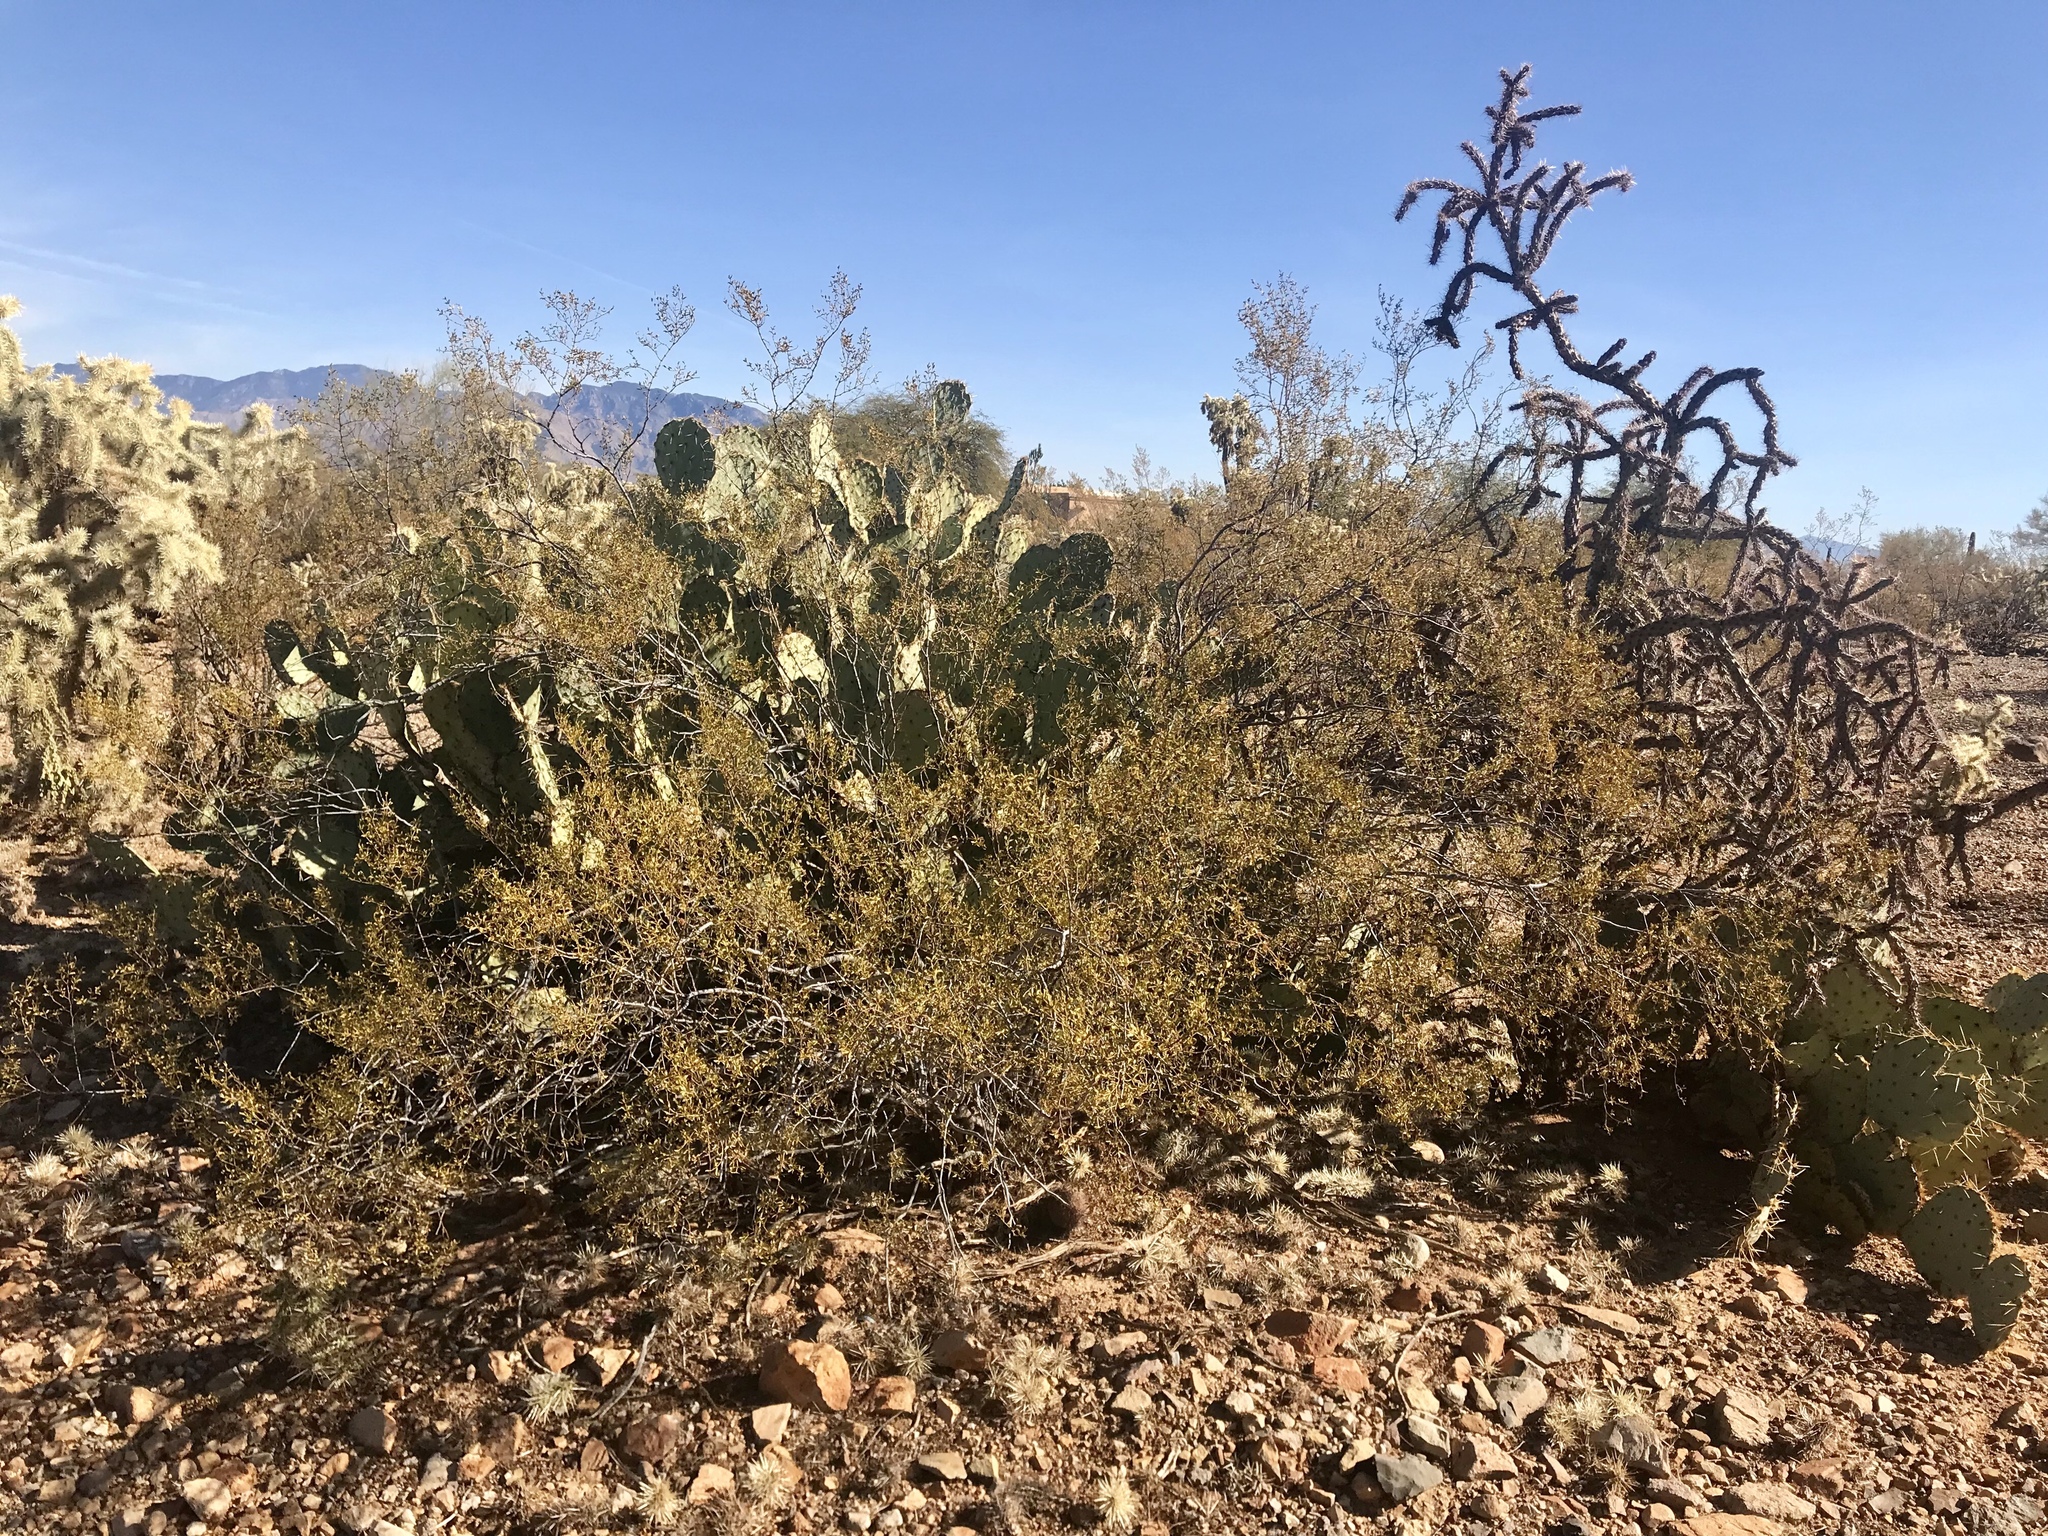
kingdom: Plantae
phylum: Tracheophyta
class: Magnoliopsida
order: Zygophyllales
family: Zygophyllaceae
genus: Larrea
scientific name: Larrea tridentata
